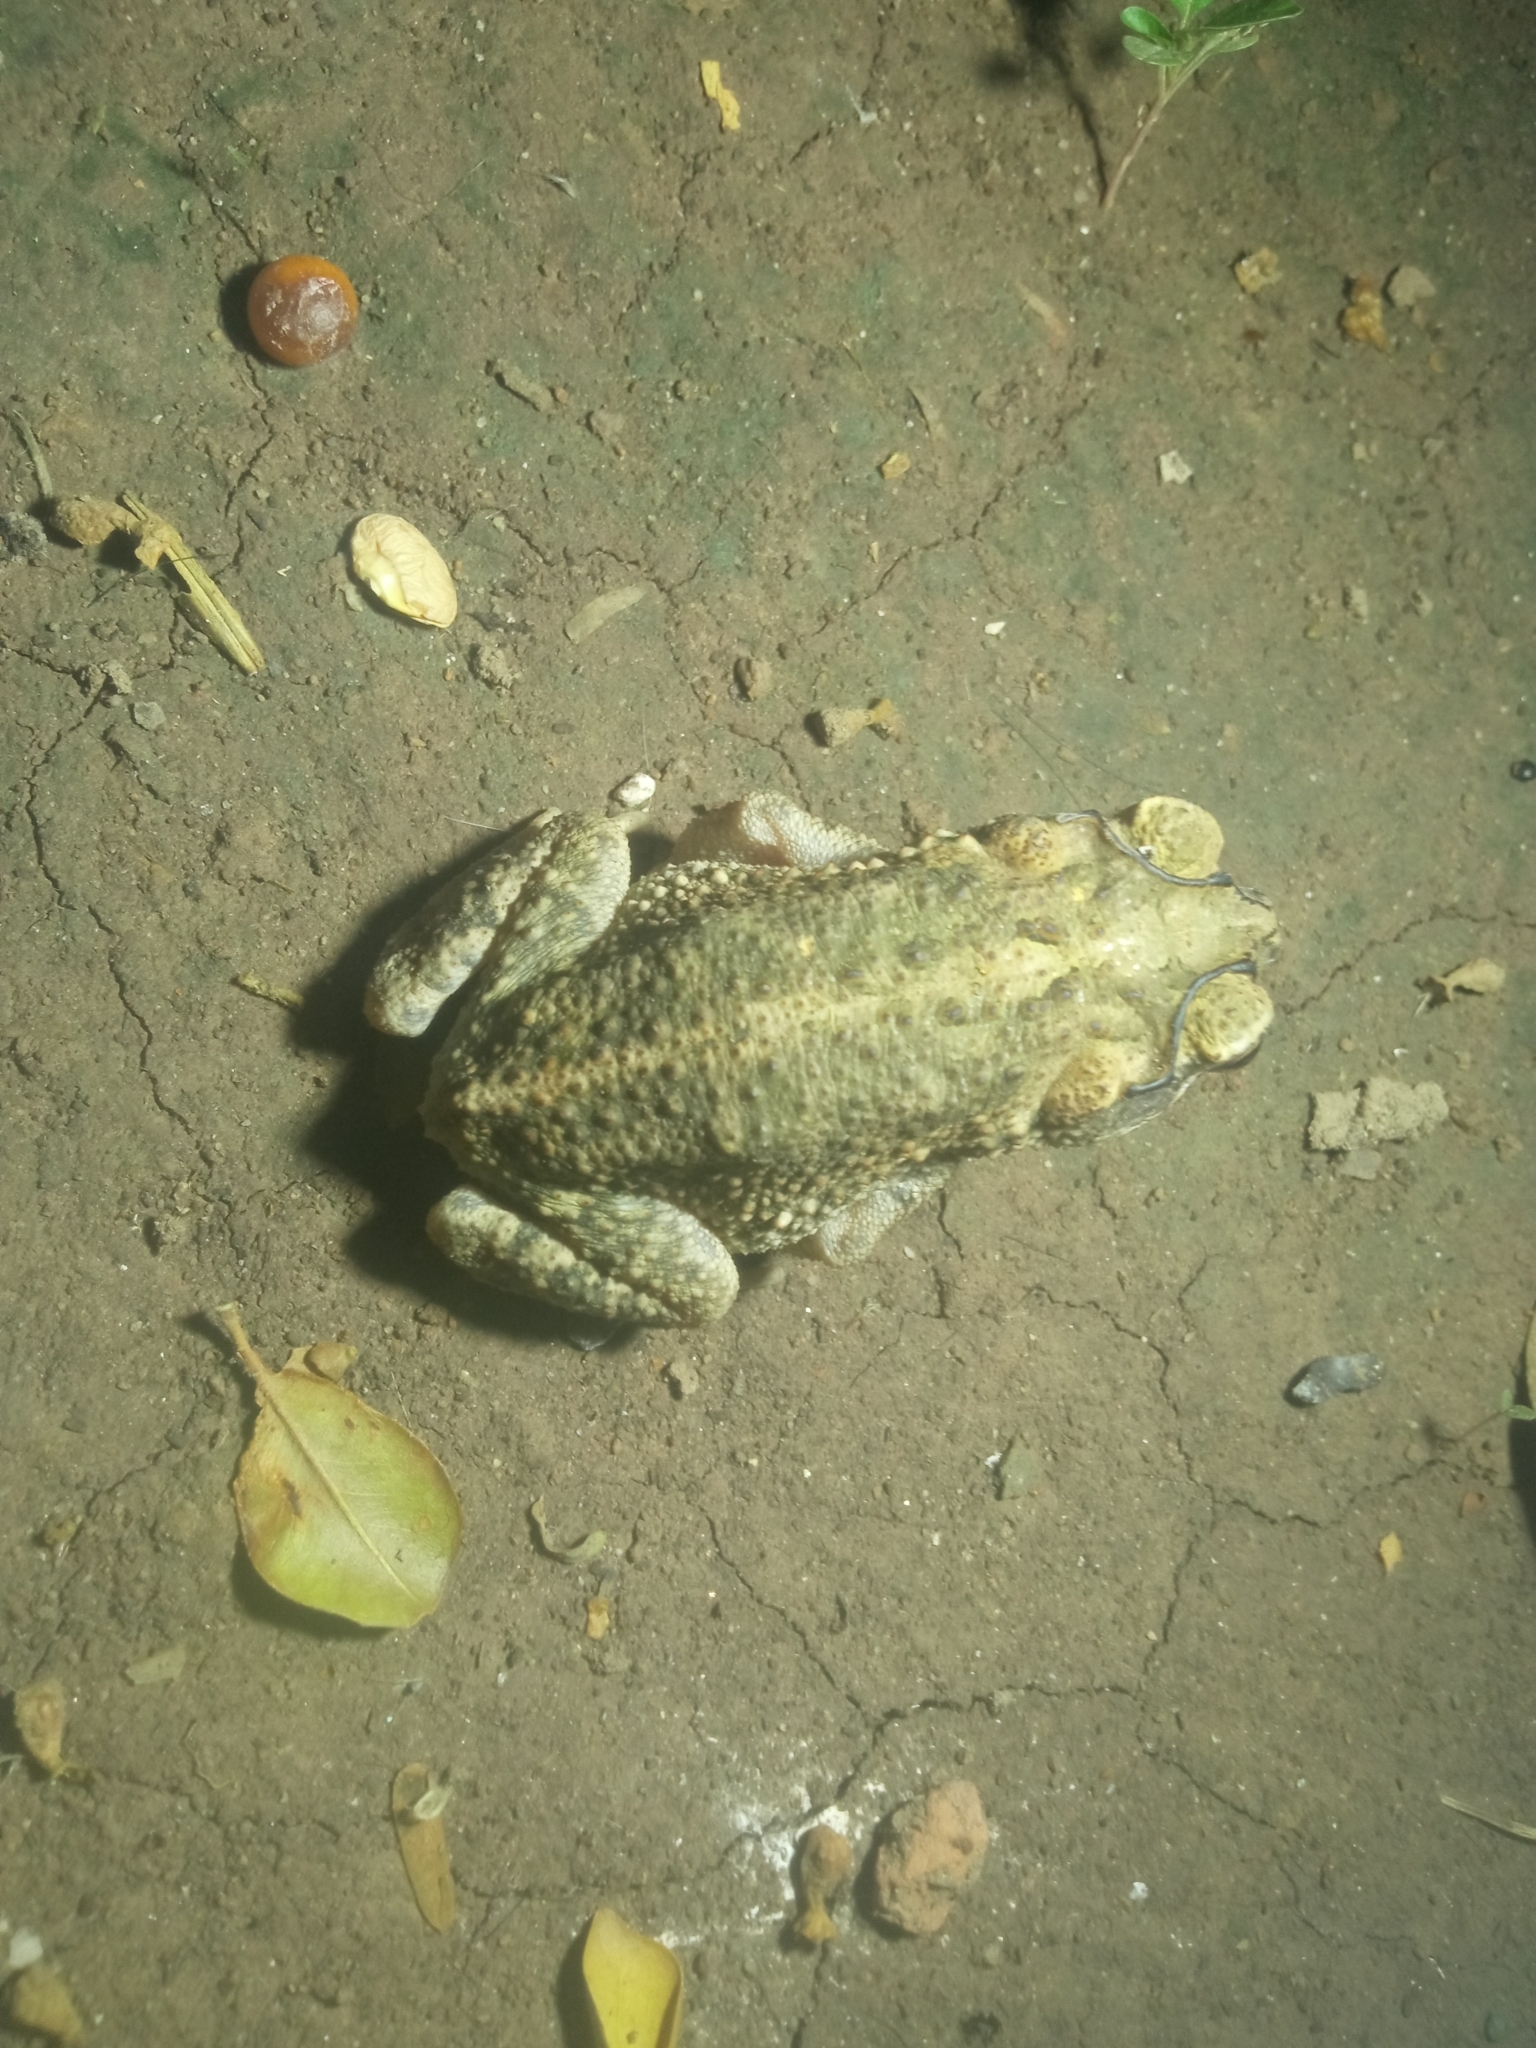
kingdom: Animalia
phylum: Chordata
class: Amphibia
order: Anura
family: Bufonidae
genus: Incilius
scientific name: Incilius mazatlanensis
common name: Sinaloa toad
